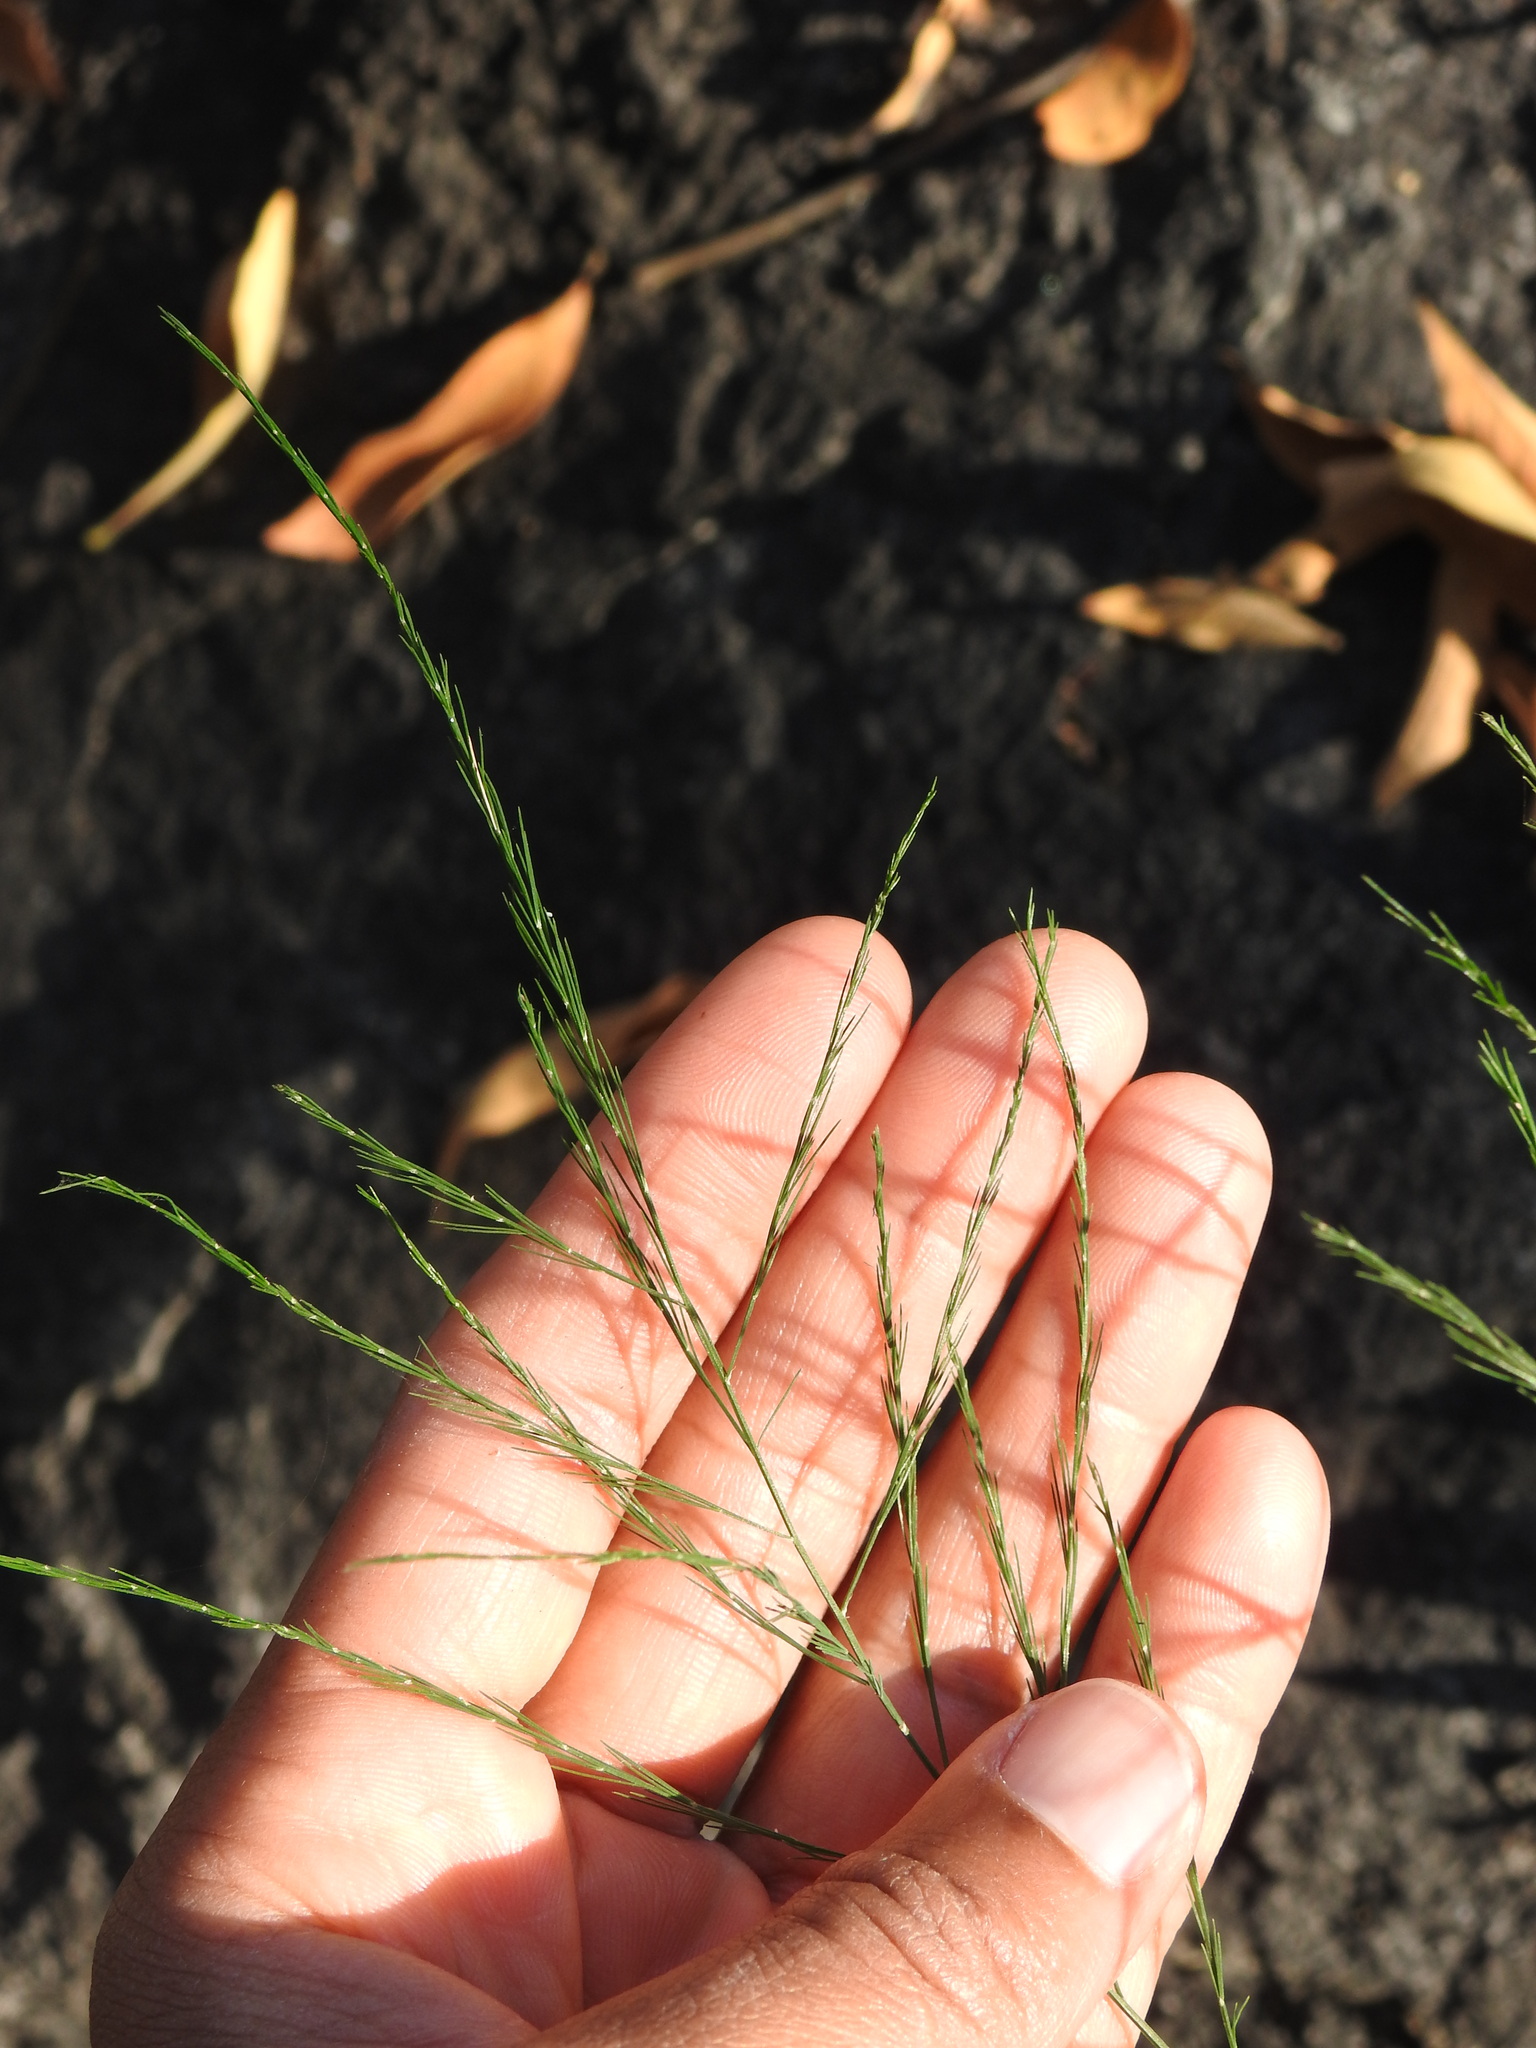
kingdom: Plantae
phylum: Tracheophyta
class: Liliopsida
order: Asparagales
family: Asparagaceae
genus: Asparagus
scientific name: Asparagus virgatus
